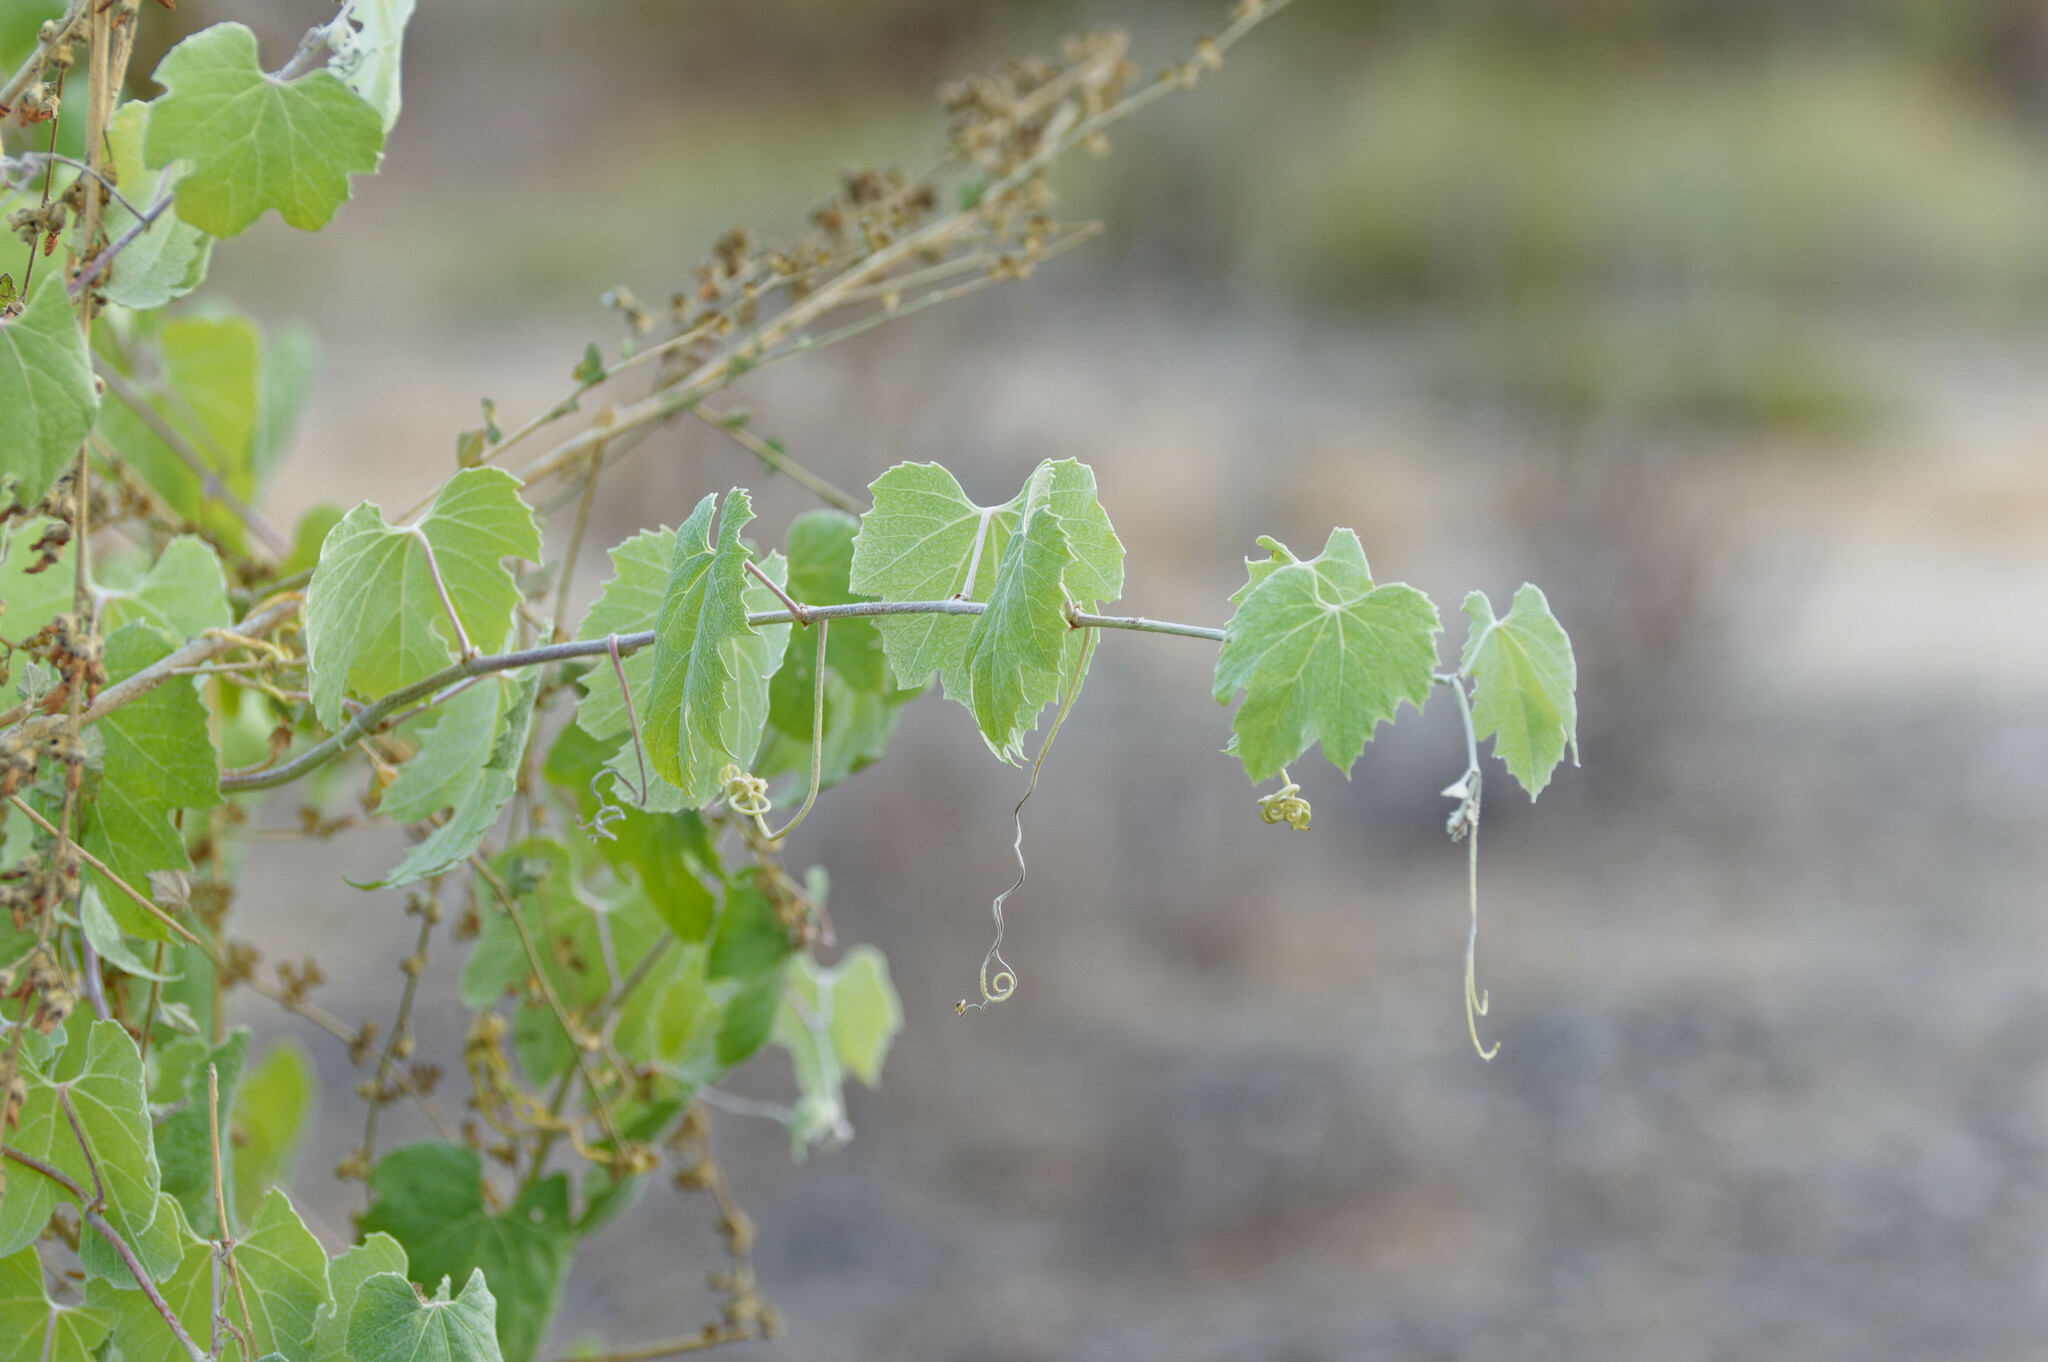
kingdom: Plantae
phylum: Tracheophyta
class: Magnoliopsida
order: Vitales
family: Vitaceae
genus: Vitis
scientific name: Vitis girdiana
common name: Desert wild grape
